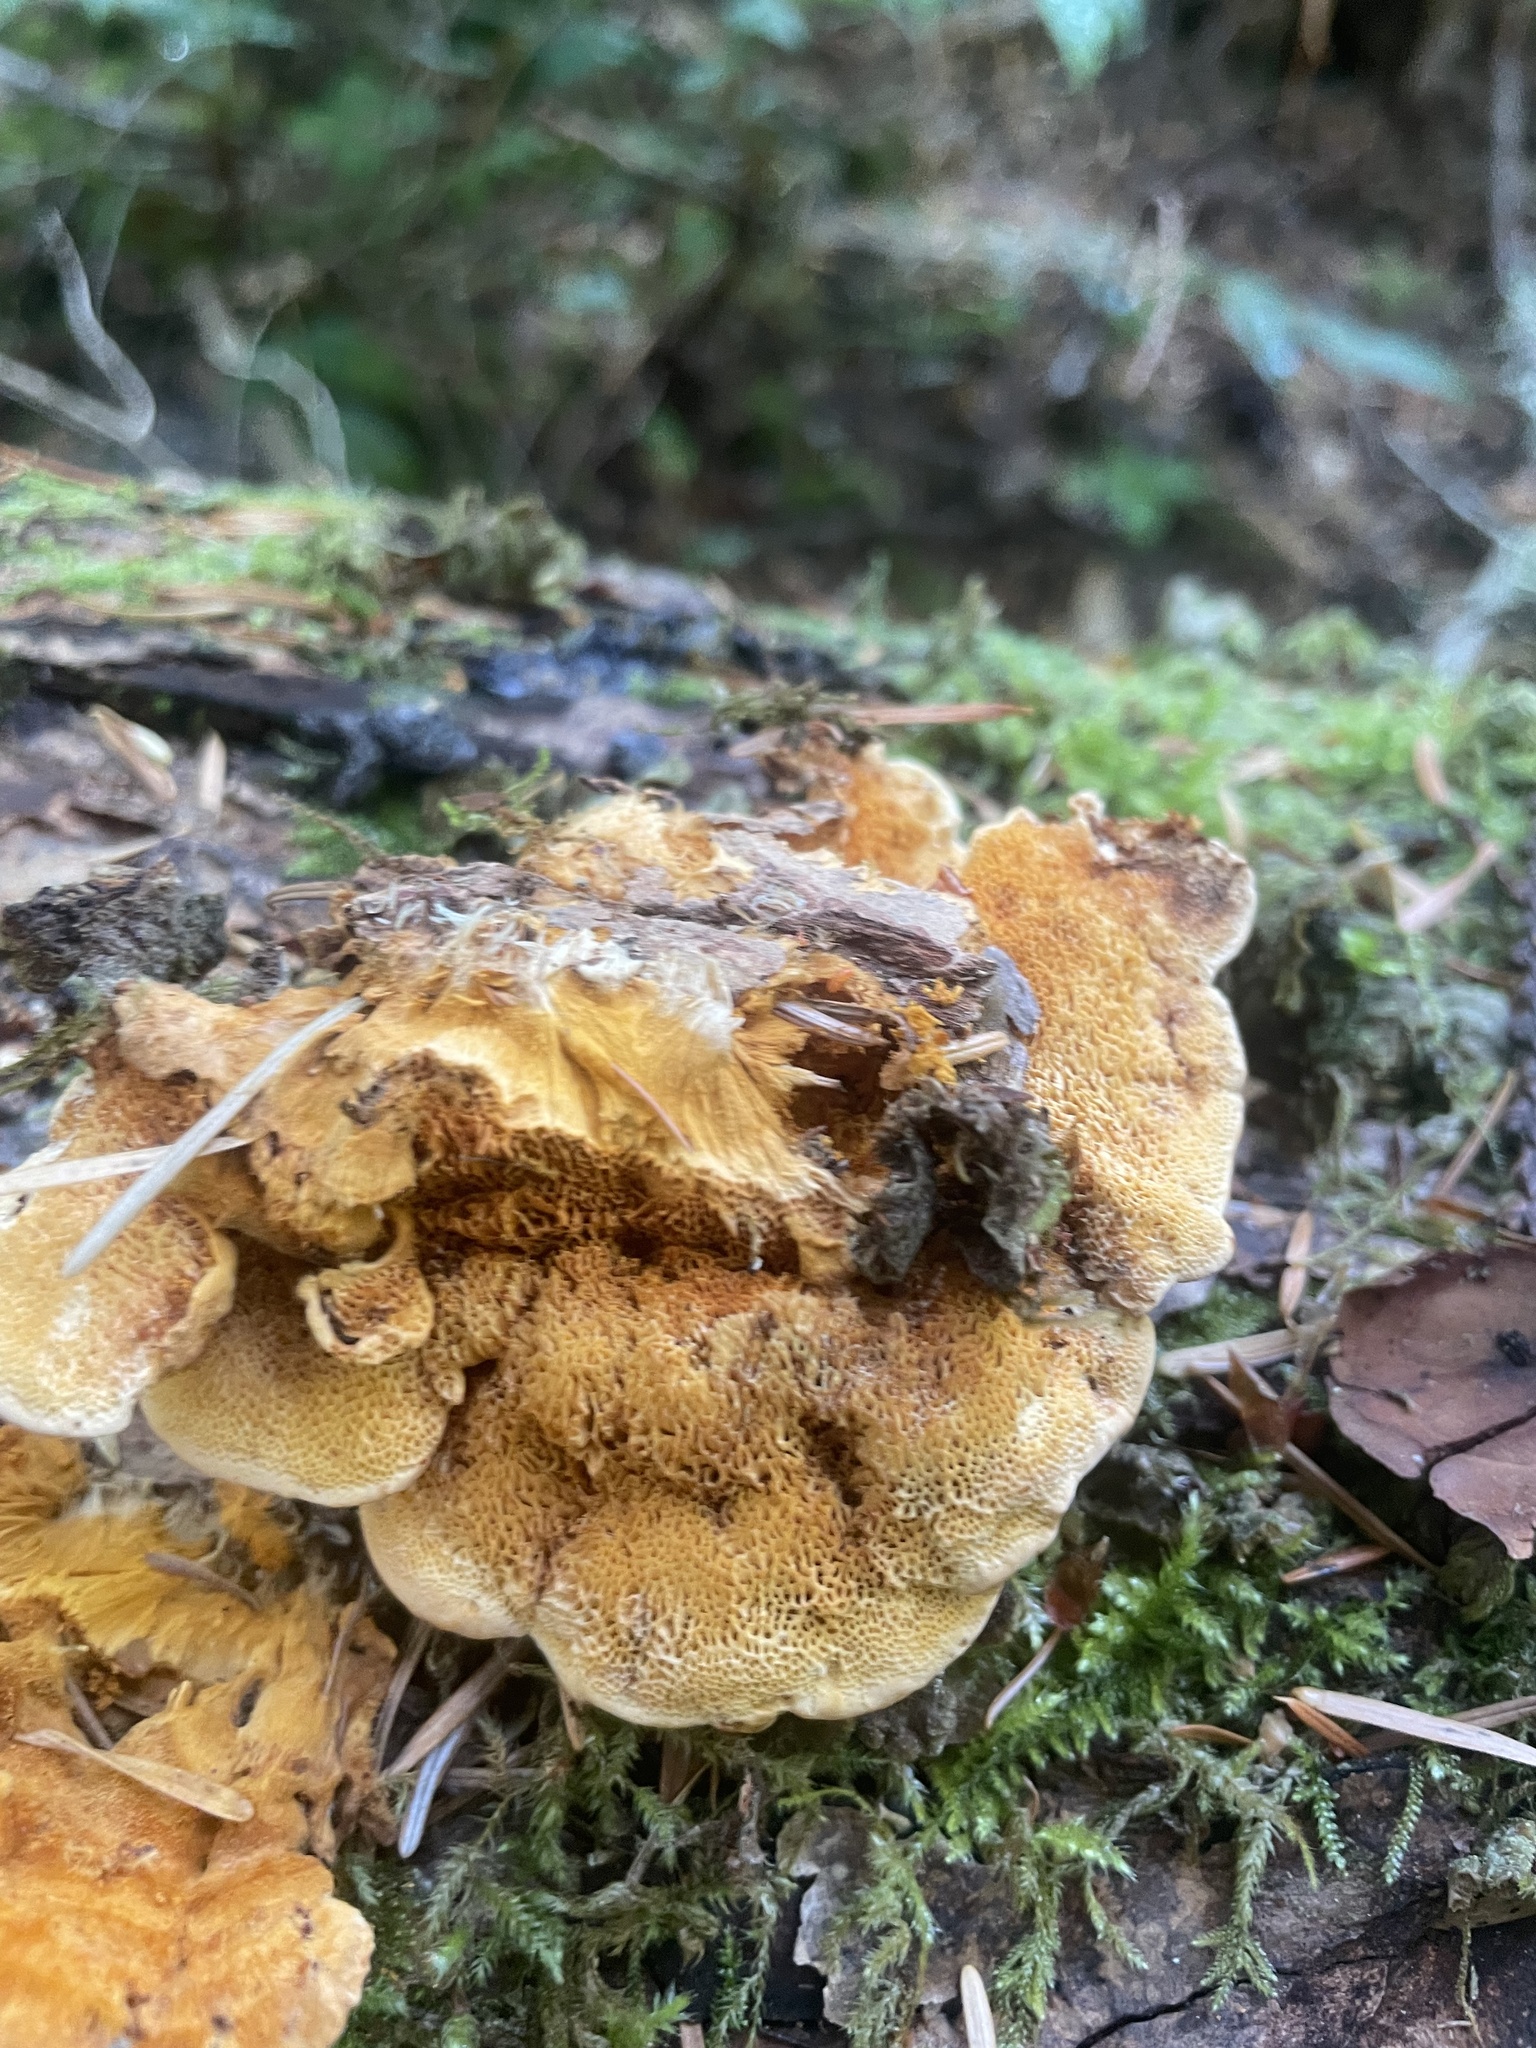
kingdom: Fungi
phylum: Basidiomycota
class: Agaricomycetes
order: Polyporales
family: Pycnoporellaceae
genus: Pycnoporellus
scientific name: Pycnoporellus fulgens
